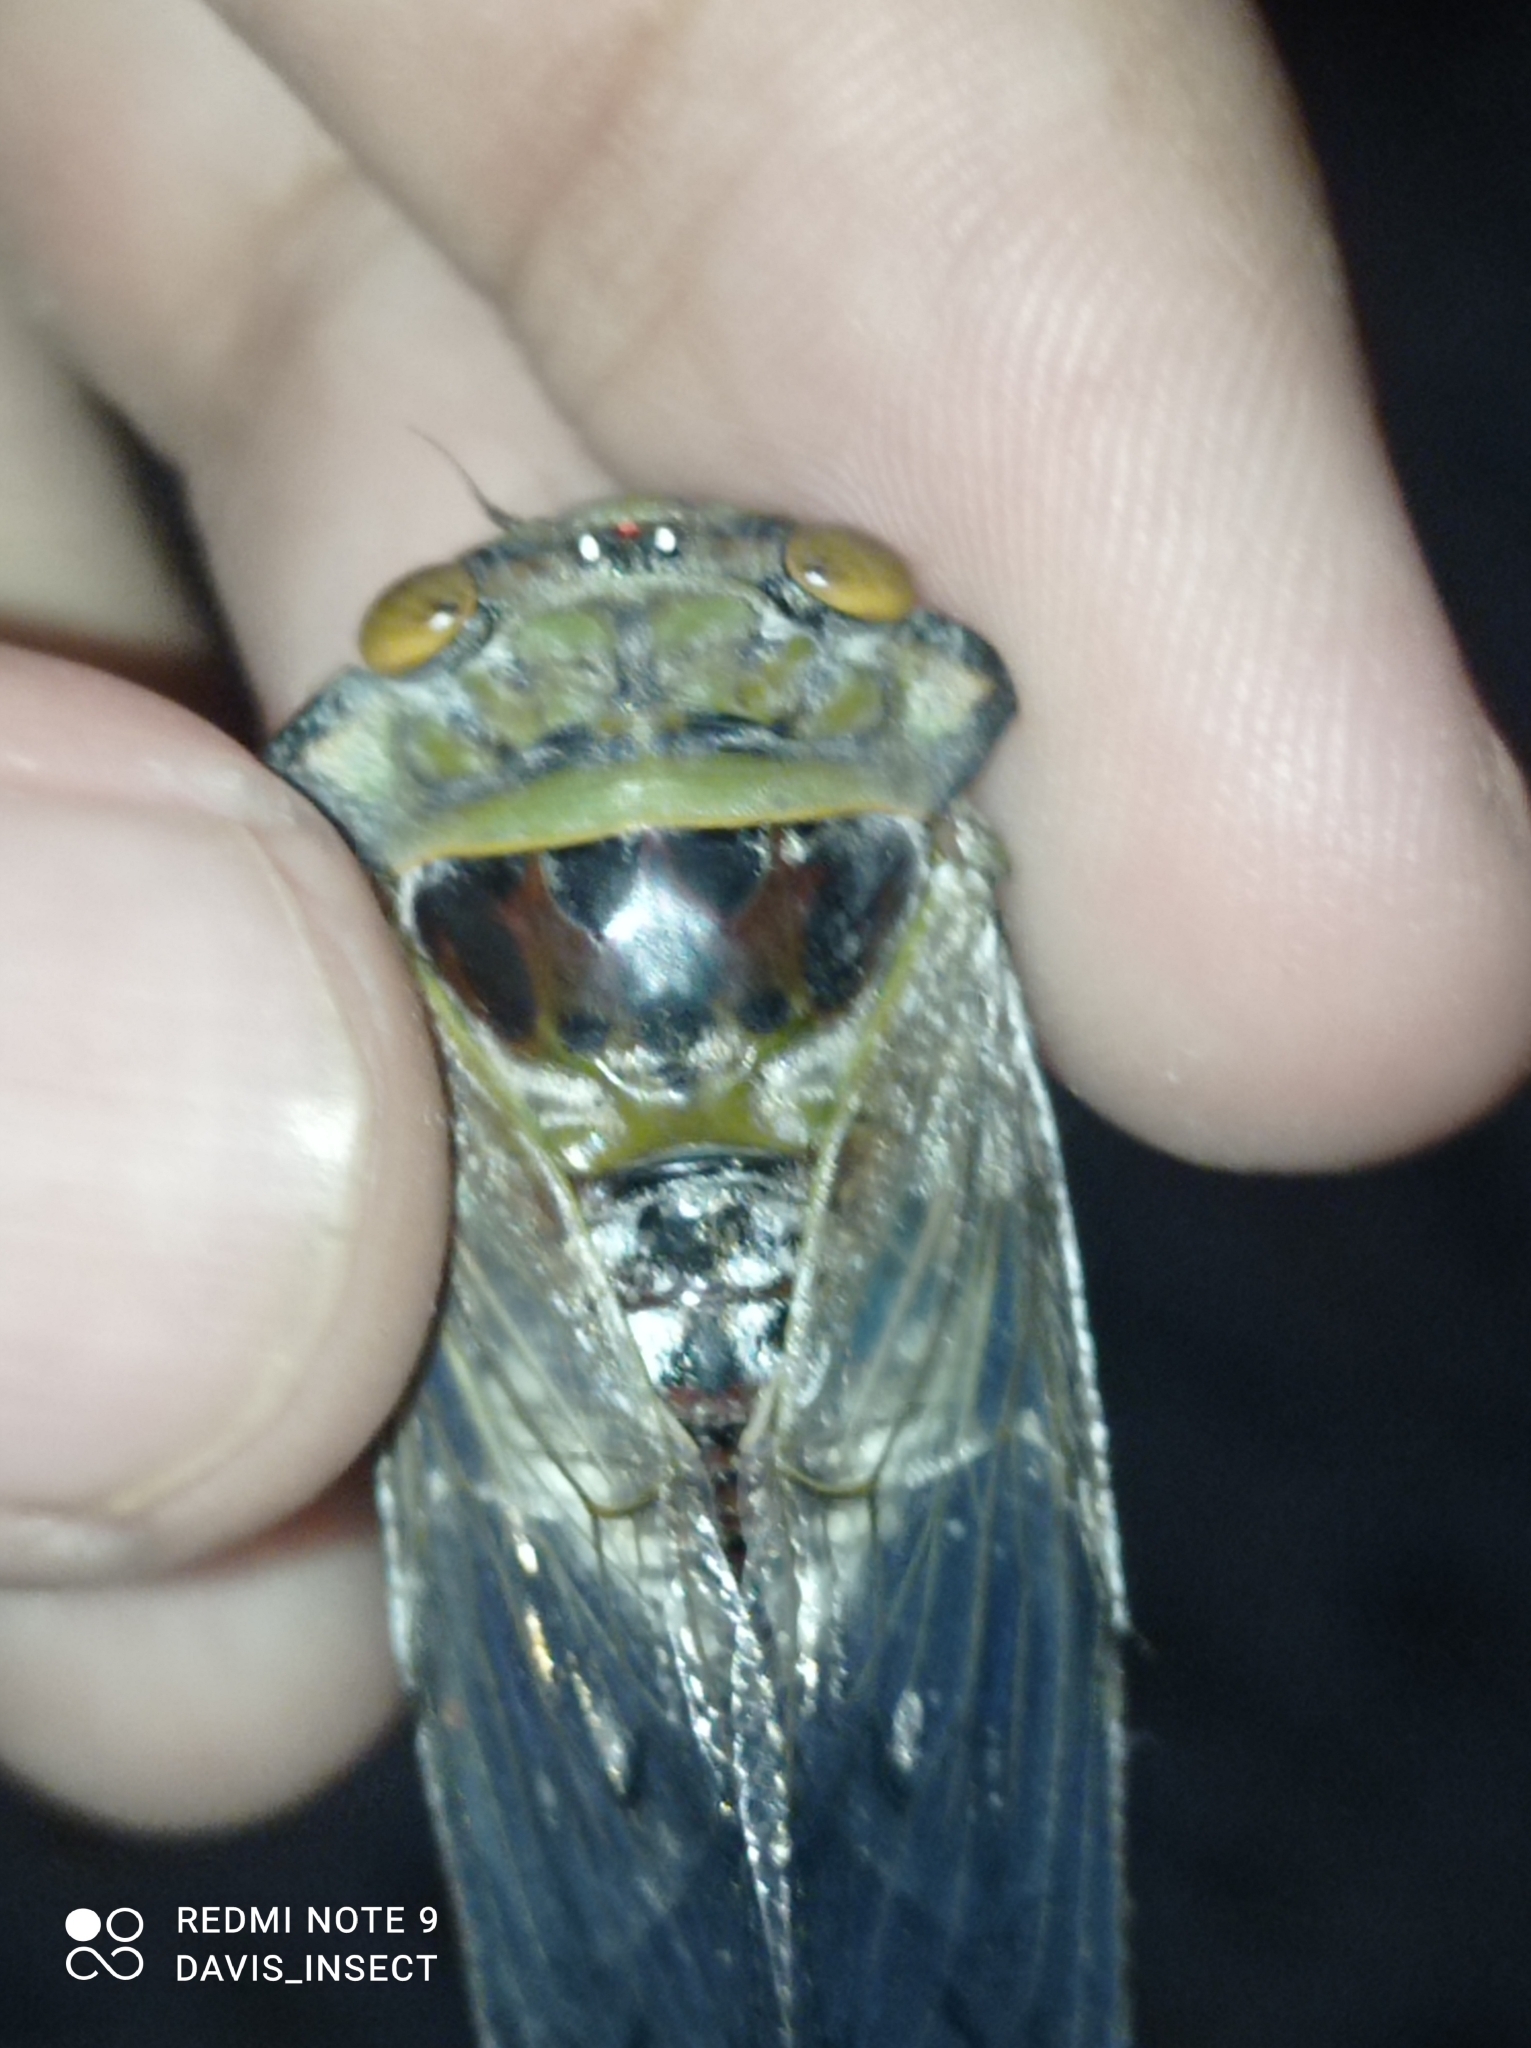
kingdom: Animalia
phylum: Arthropoda
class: Insecta
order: Hemiptera
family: Cicadidae
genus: Platypleura
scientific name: Platypleura canescens
